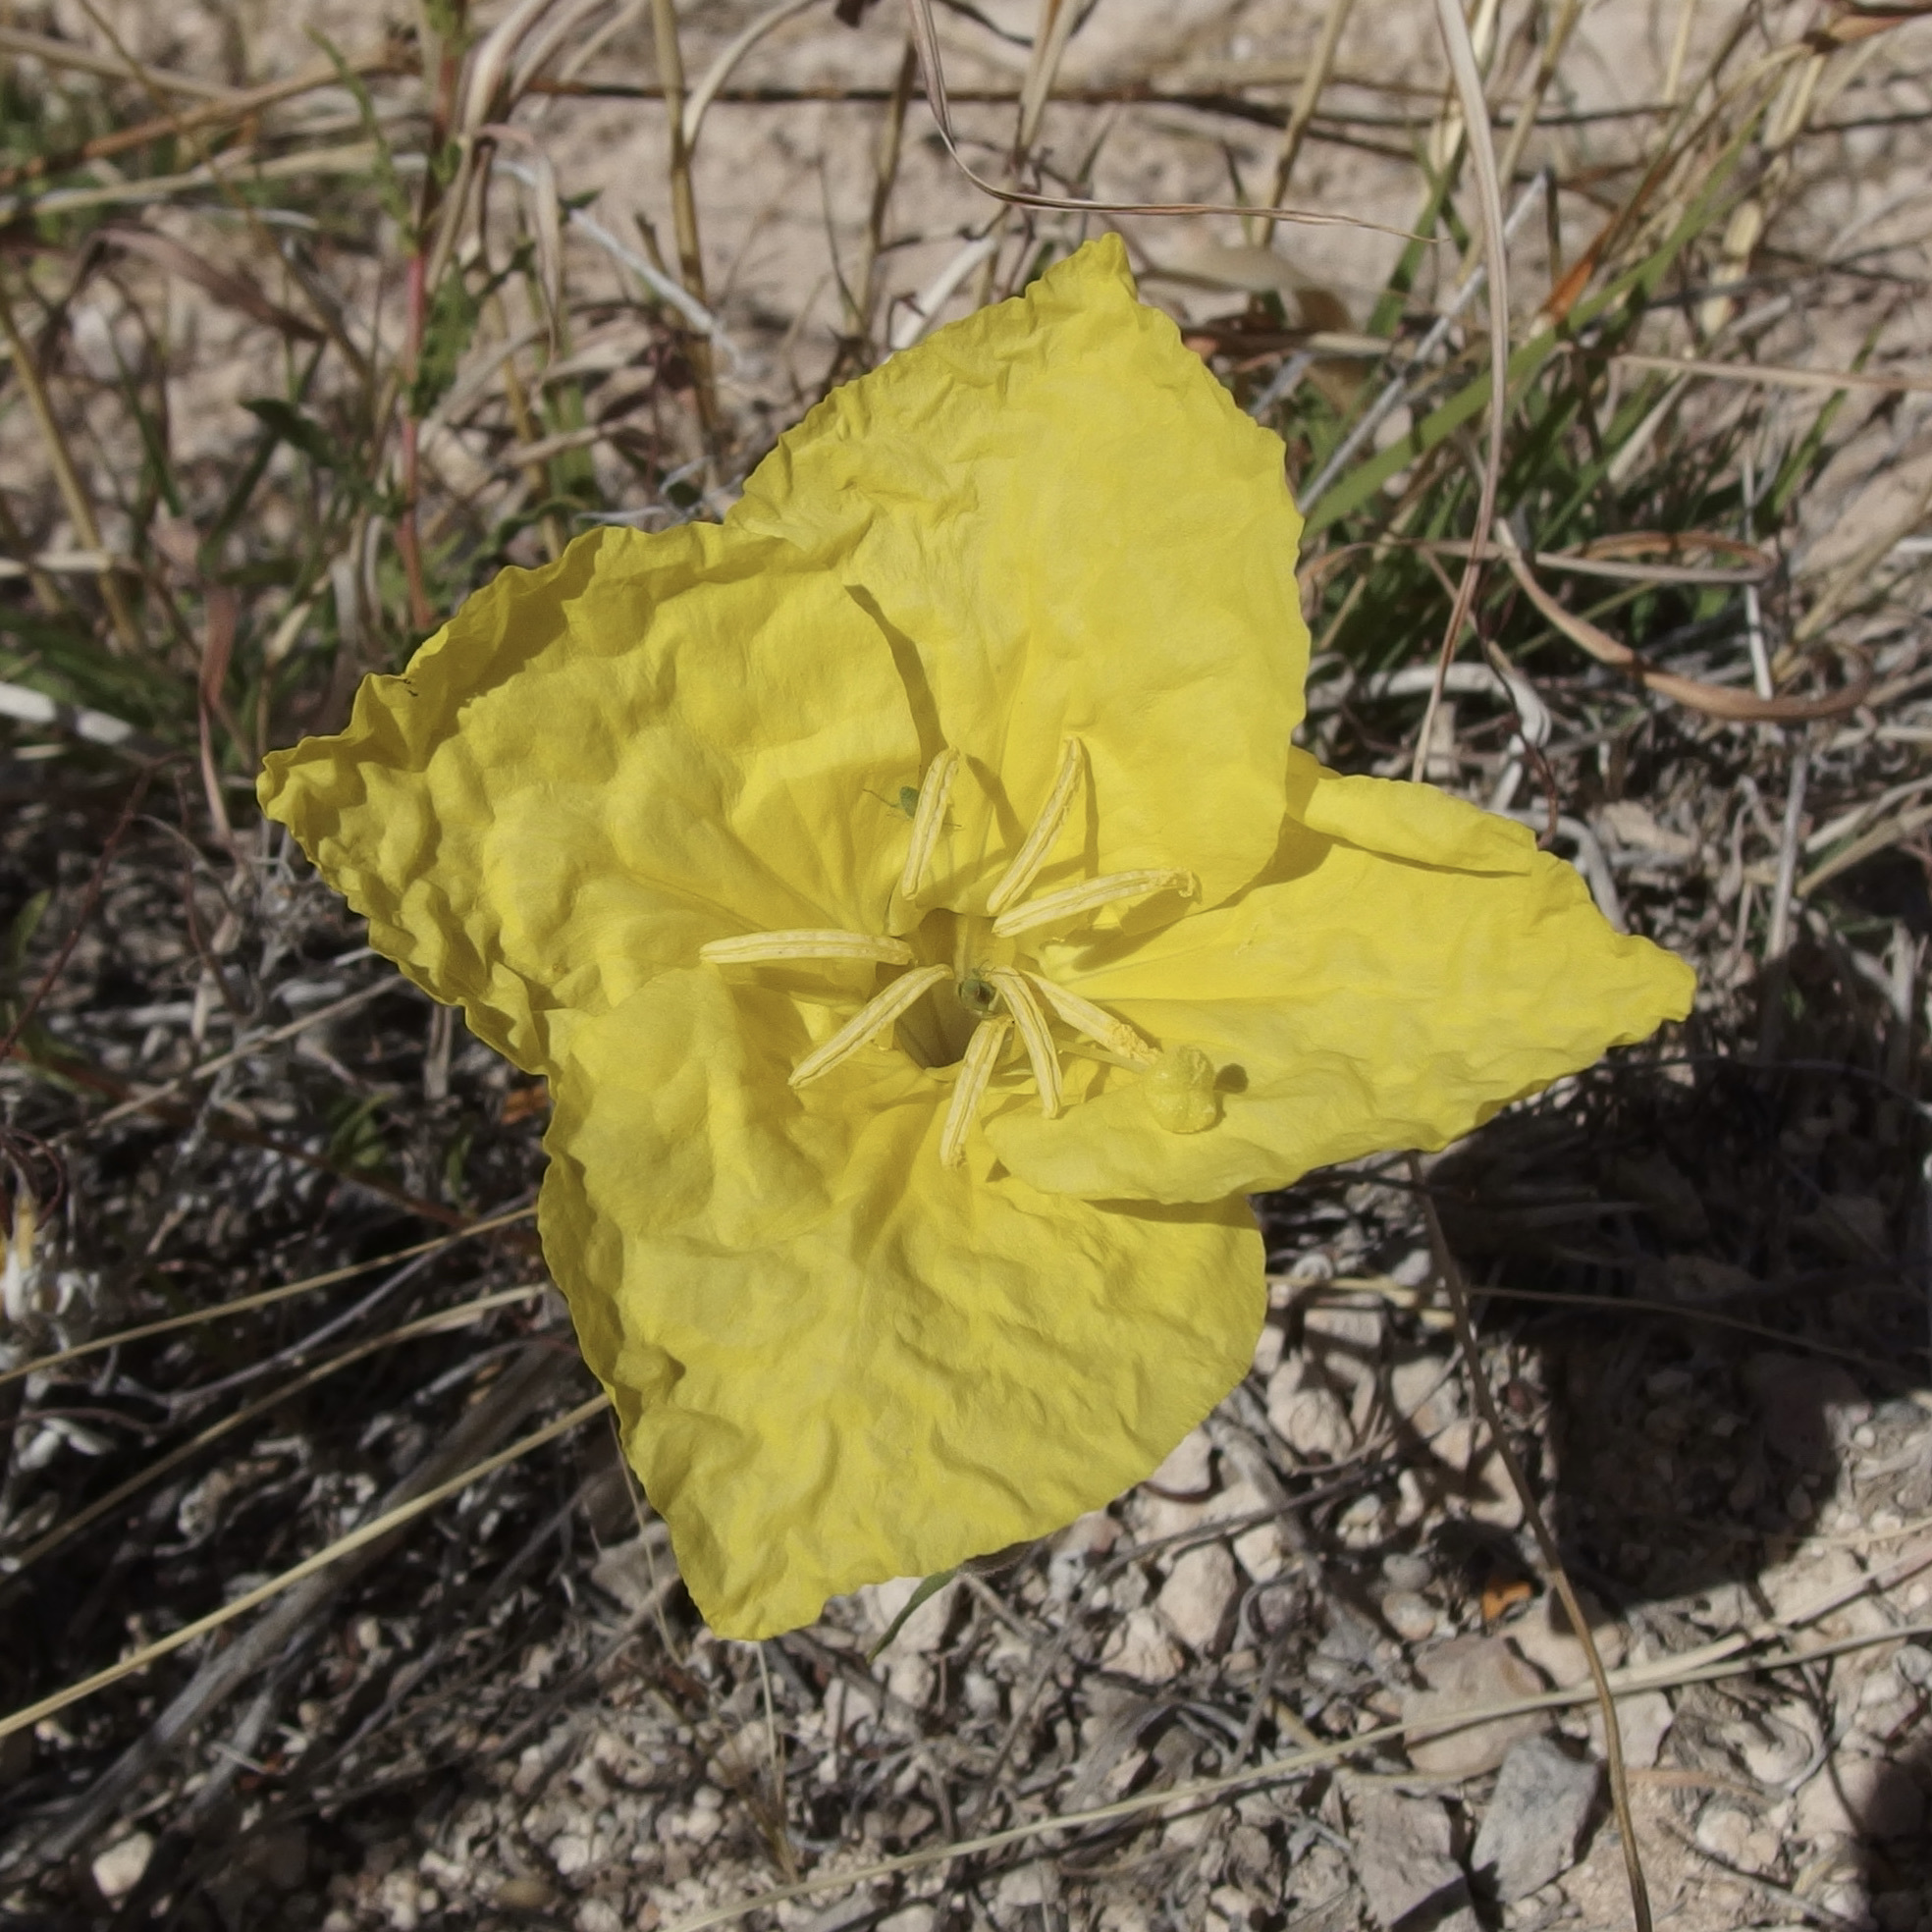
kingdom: Plantae
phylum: Tracheophyta
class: Magnoliopsida
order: Myrtales
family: Onagraceae
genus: Oenothera
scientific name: Oenothera hartwegii
